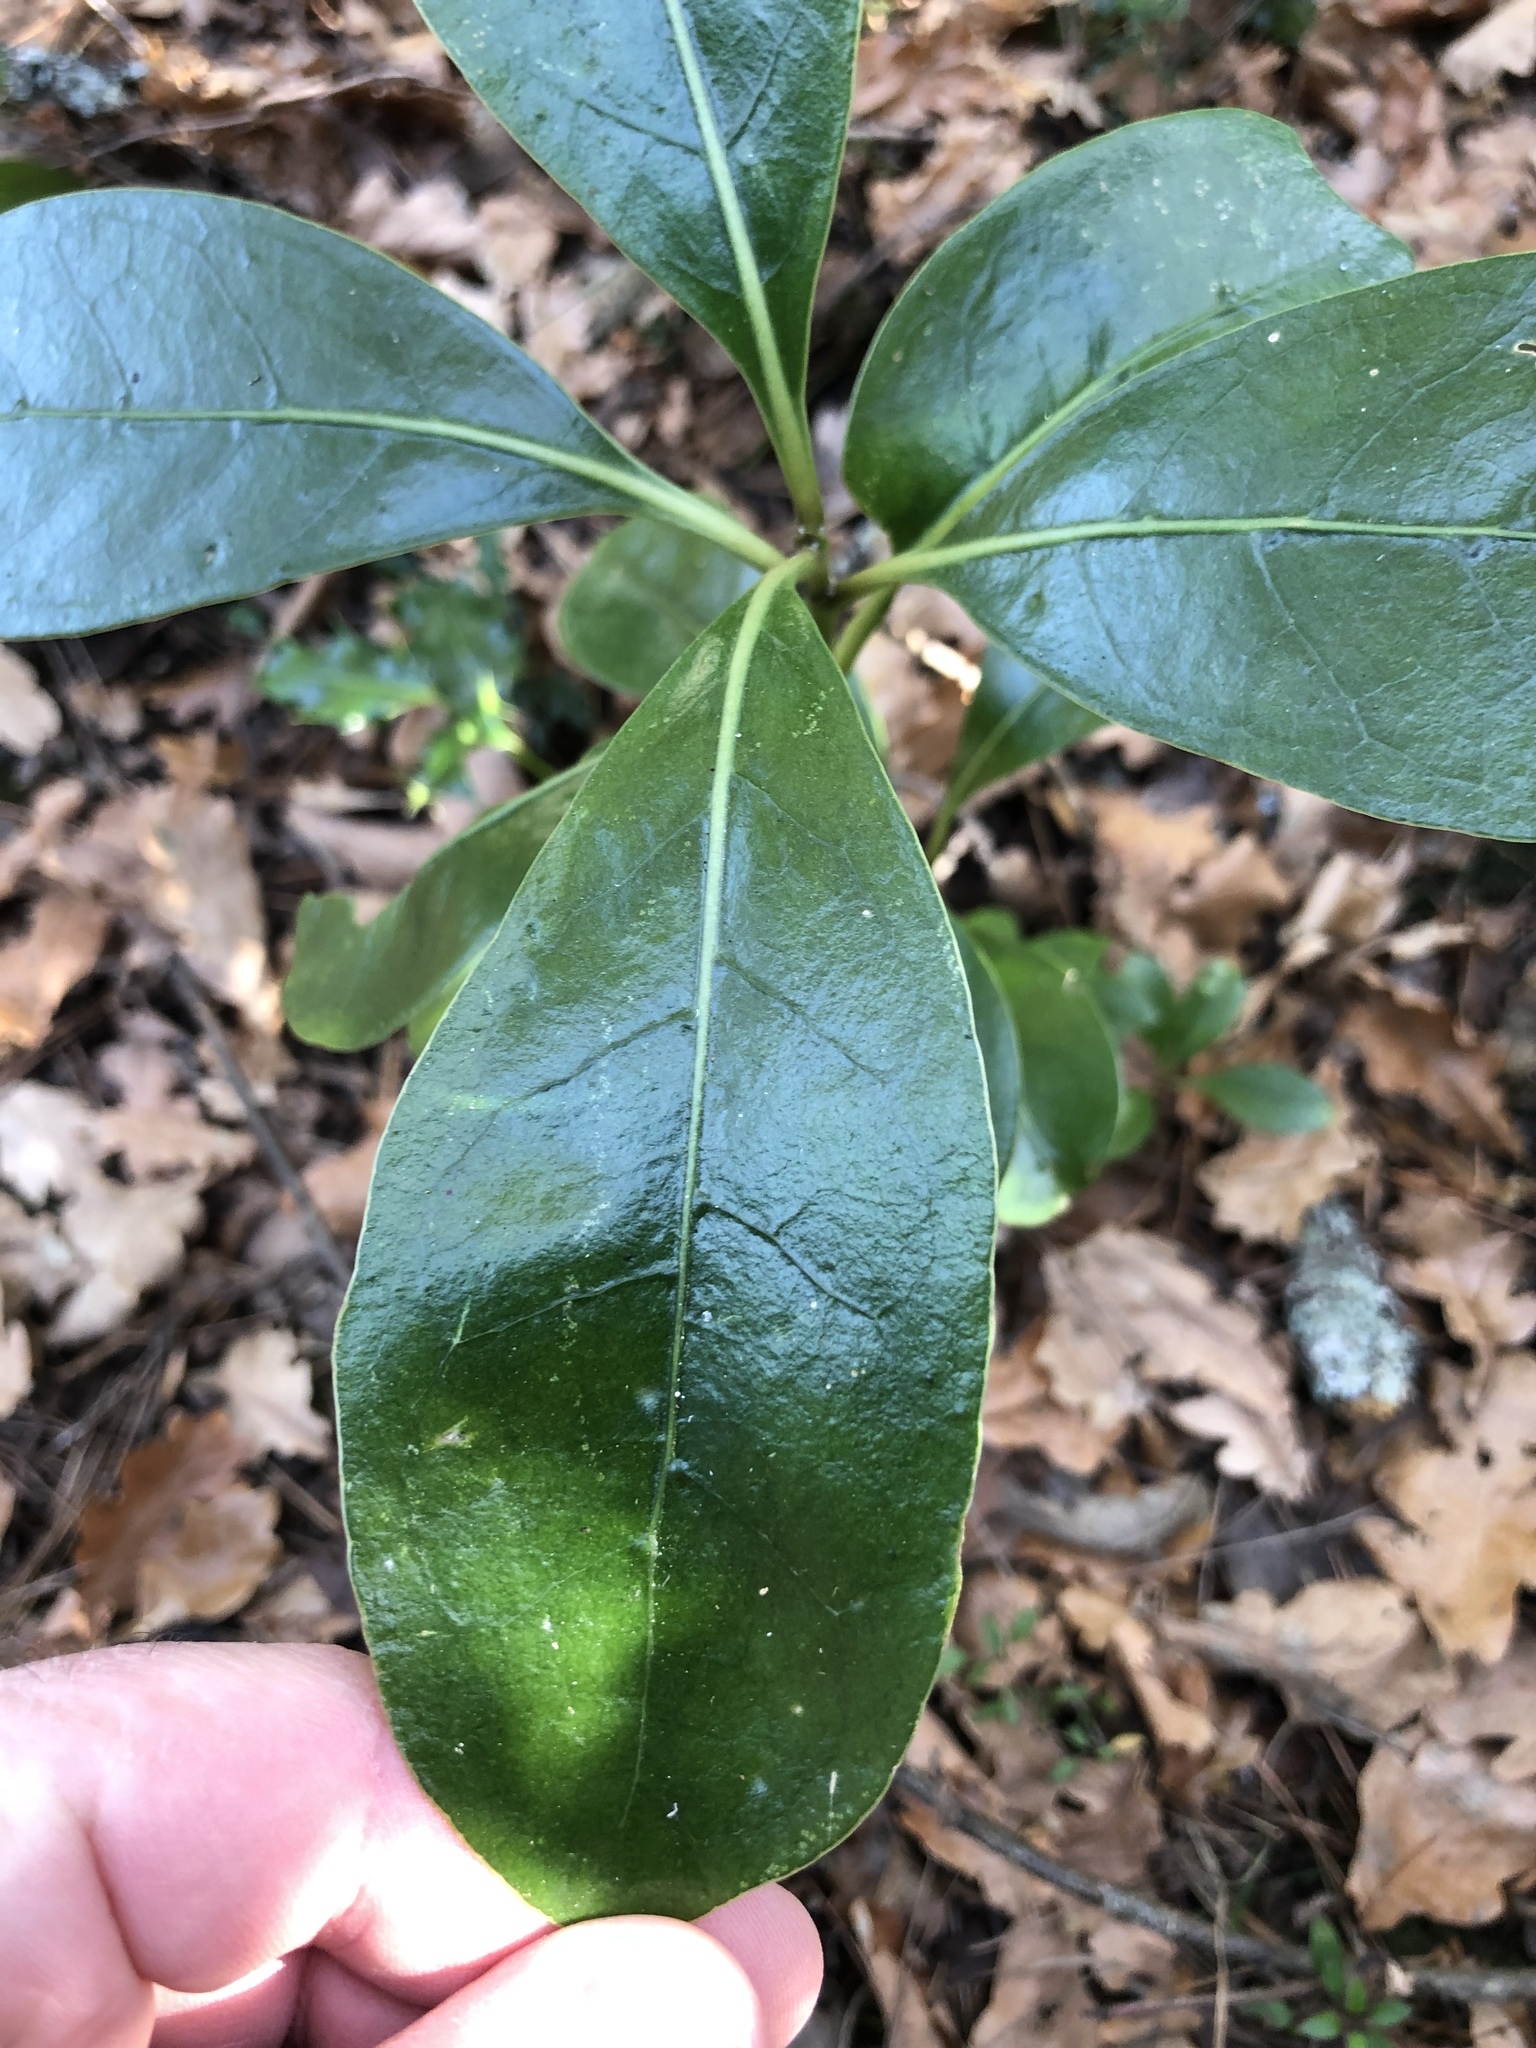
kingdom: Plantae
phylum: Tracheophyta
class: Magnoliopsida
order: Gentianales
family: Rubiaceae
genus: Coprosma
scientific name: Coprosma lucida
